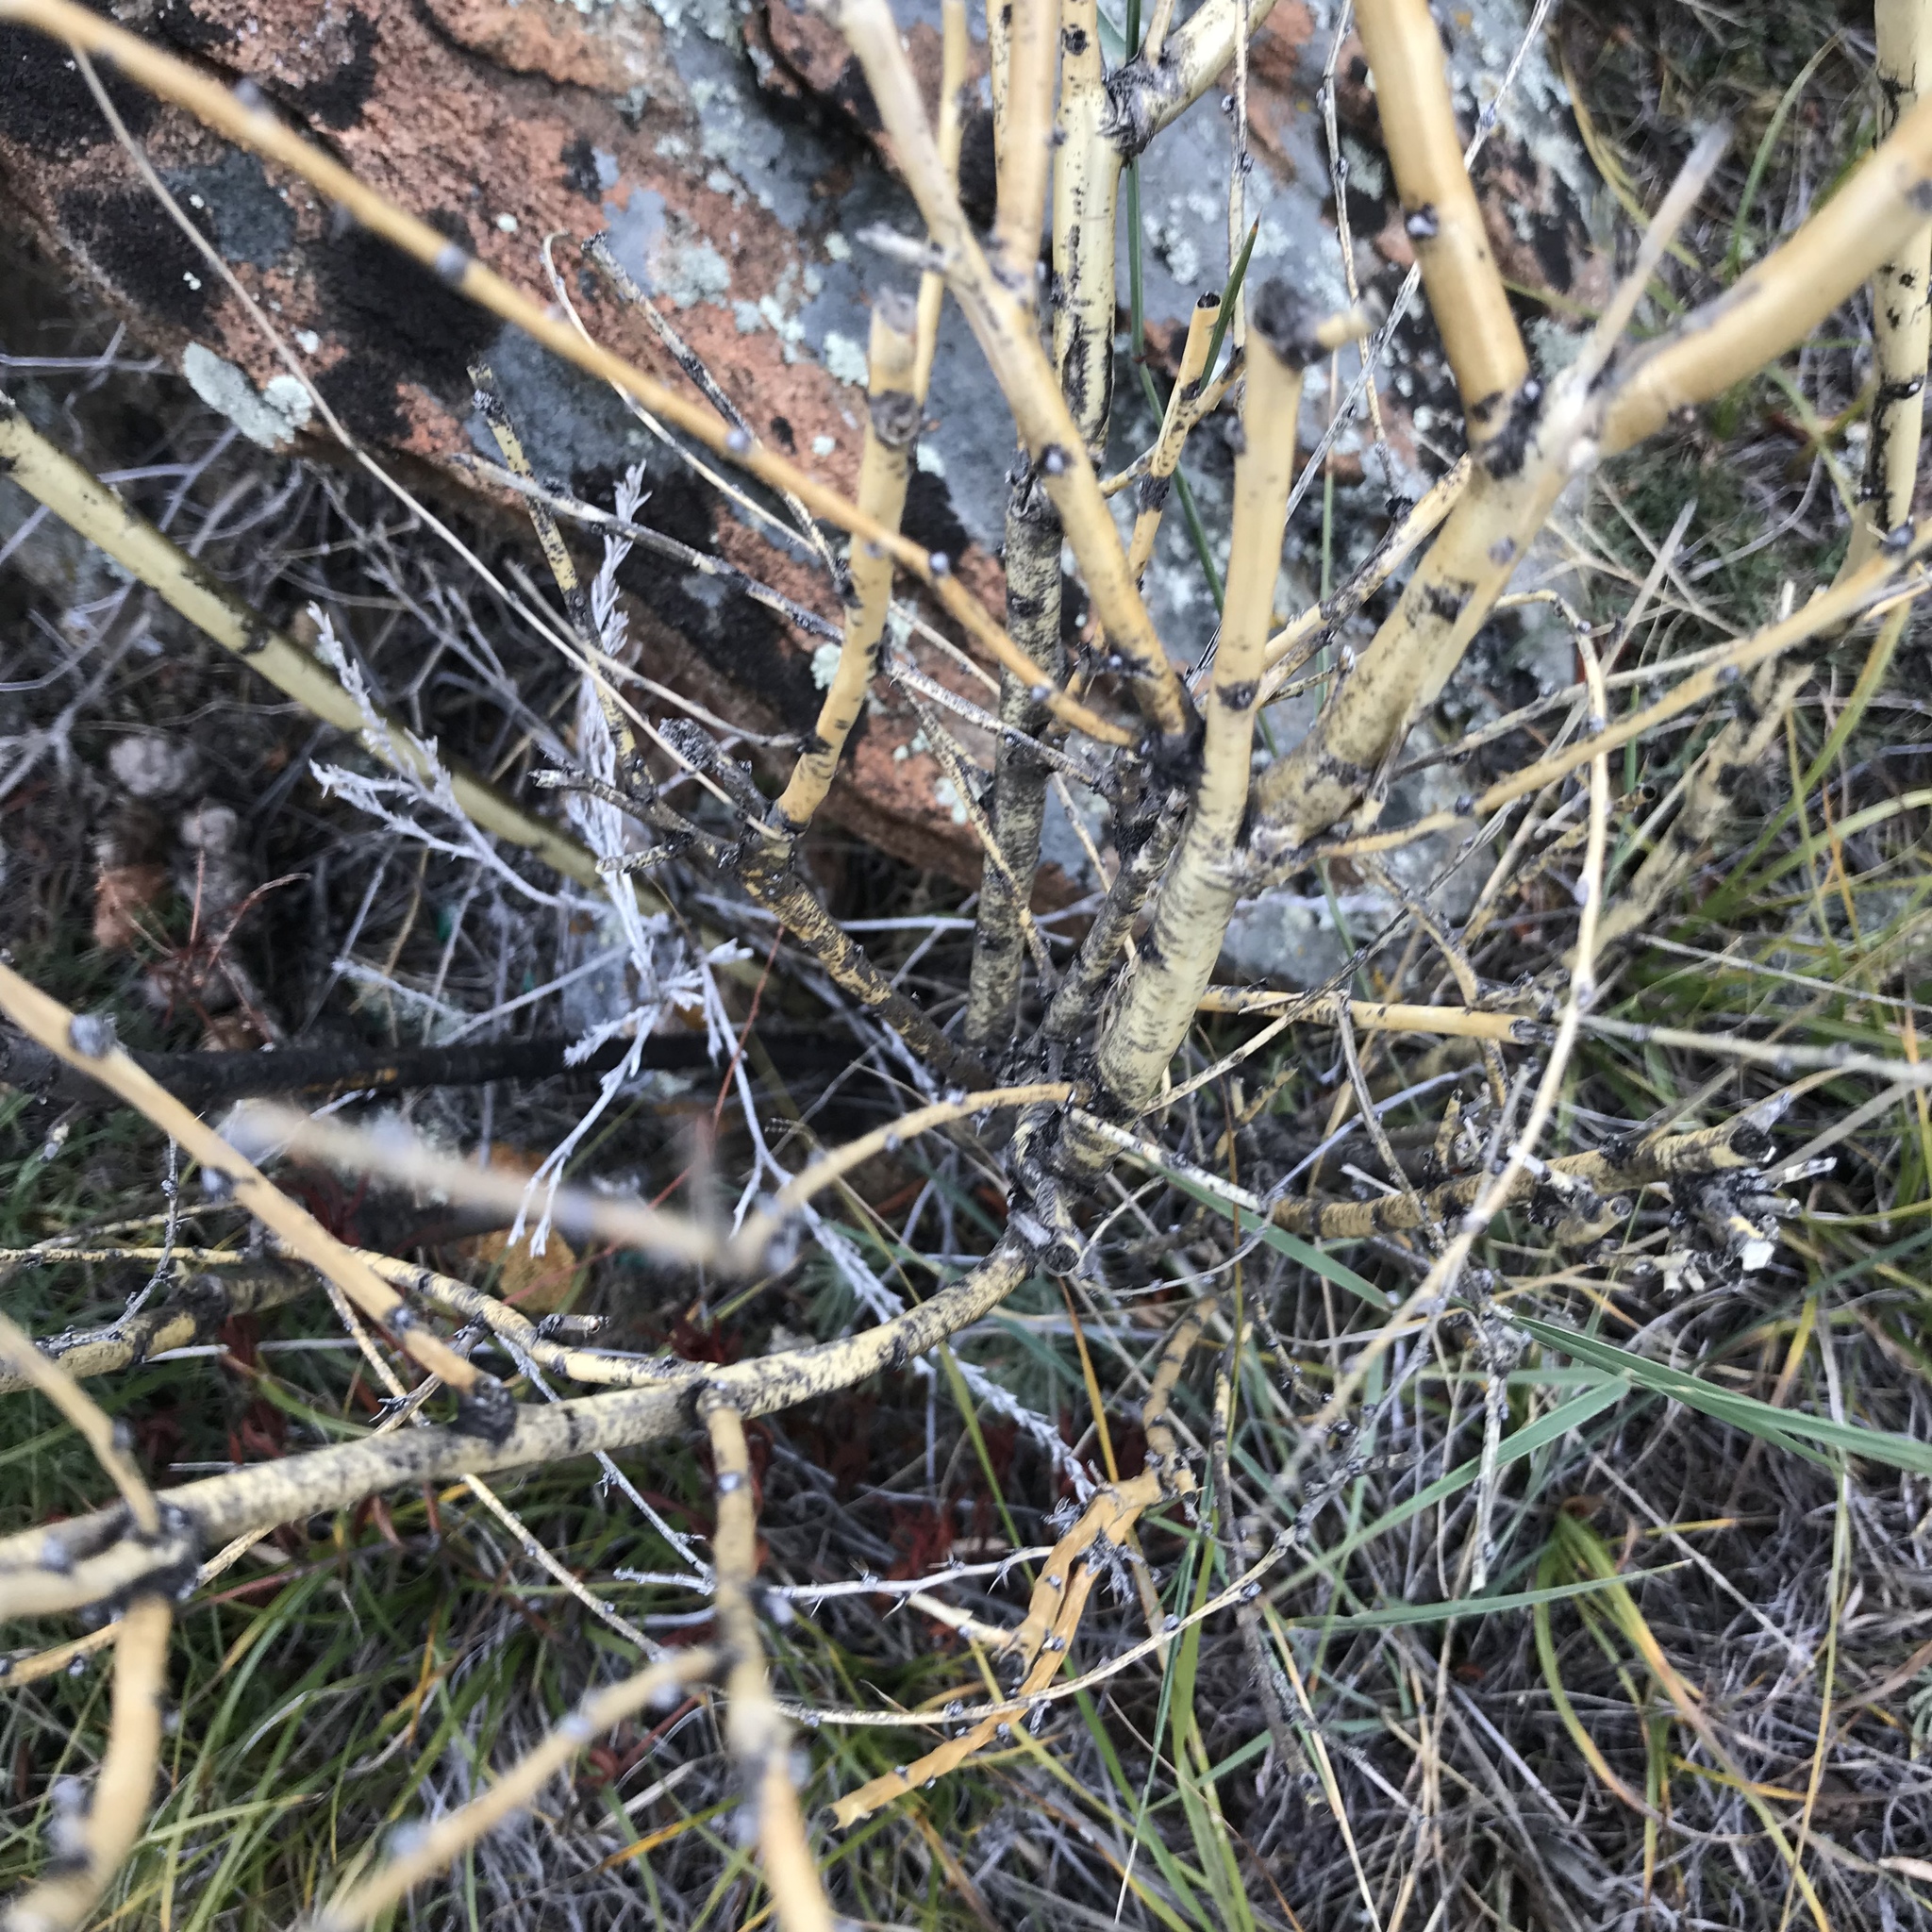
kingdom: Plantae
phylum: Tracheophyta
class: Magnoliopsida
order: Fabales
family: Fabaceae
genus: Caragana
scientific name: Caragana pygmaea
